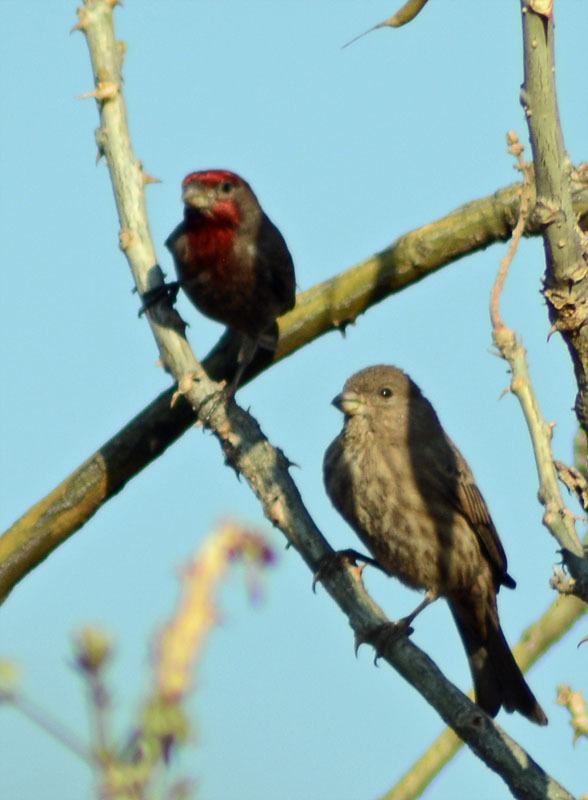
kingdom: Animalia
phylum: Chordata
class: Aves
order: Passeriformes
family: Fringillidae
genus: Haemorhous
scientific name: Haemorhous mexicanus
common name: House finch
